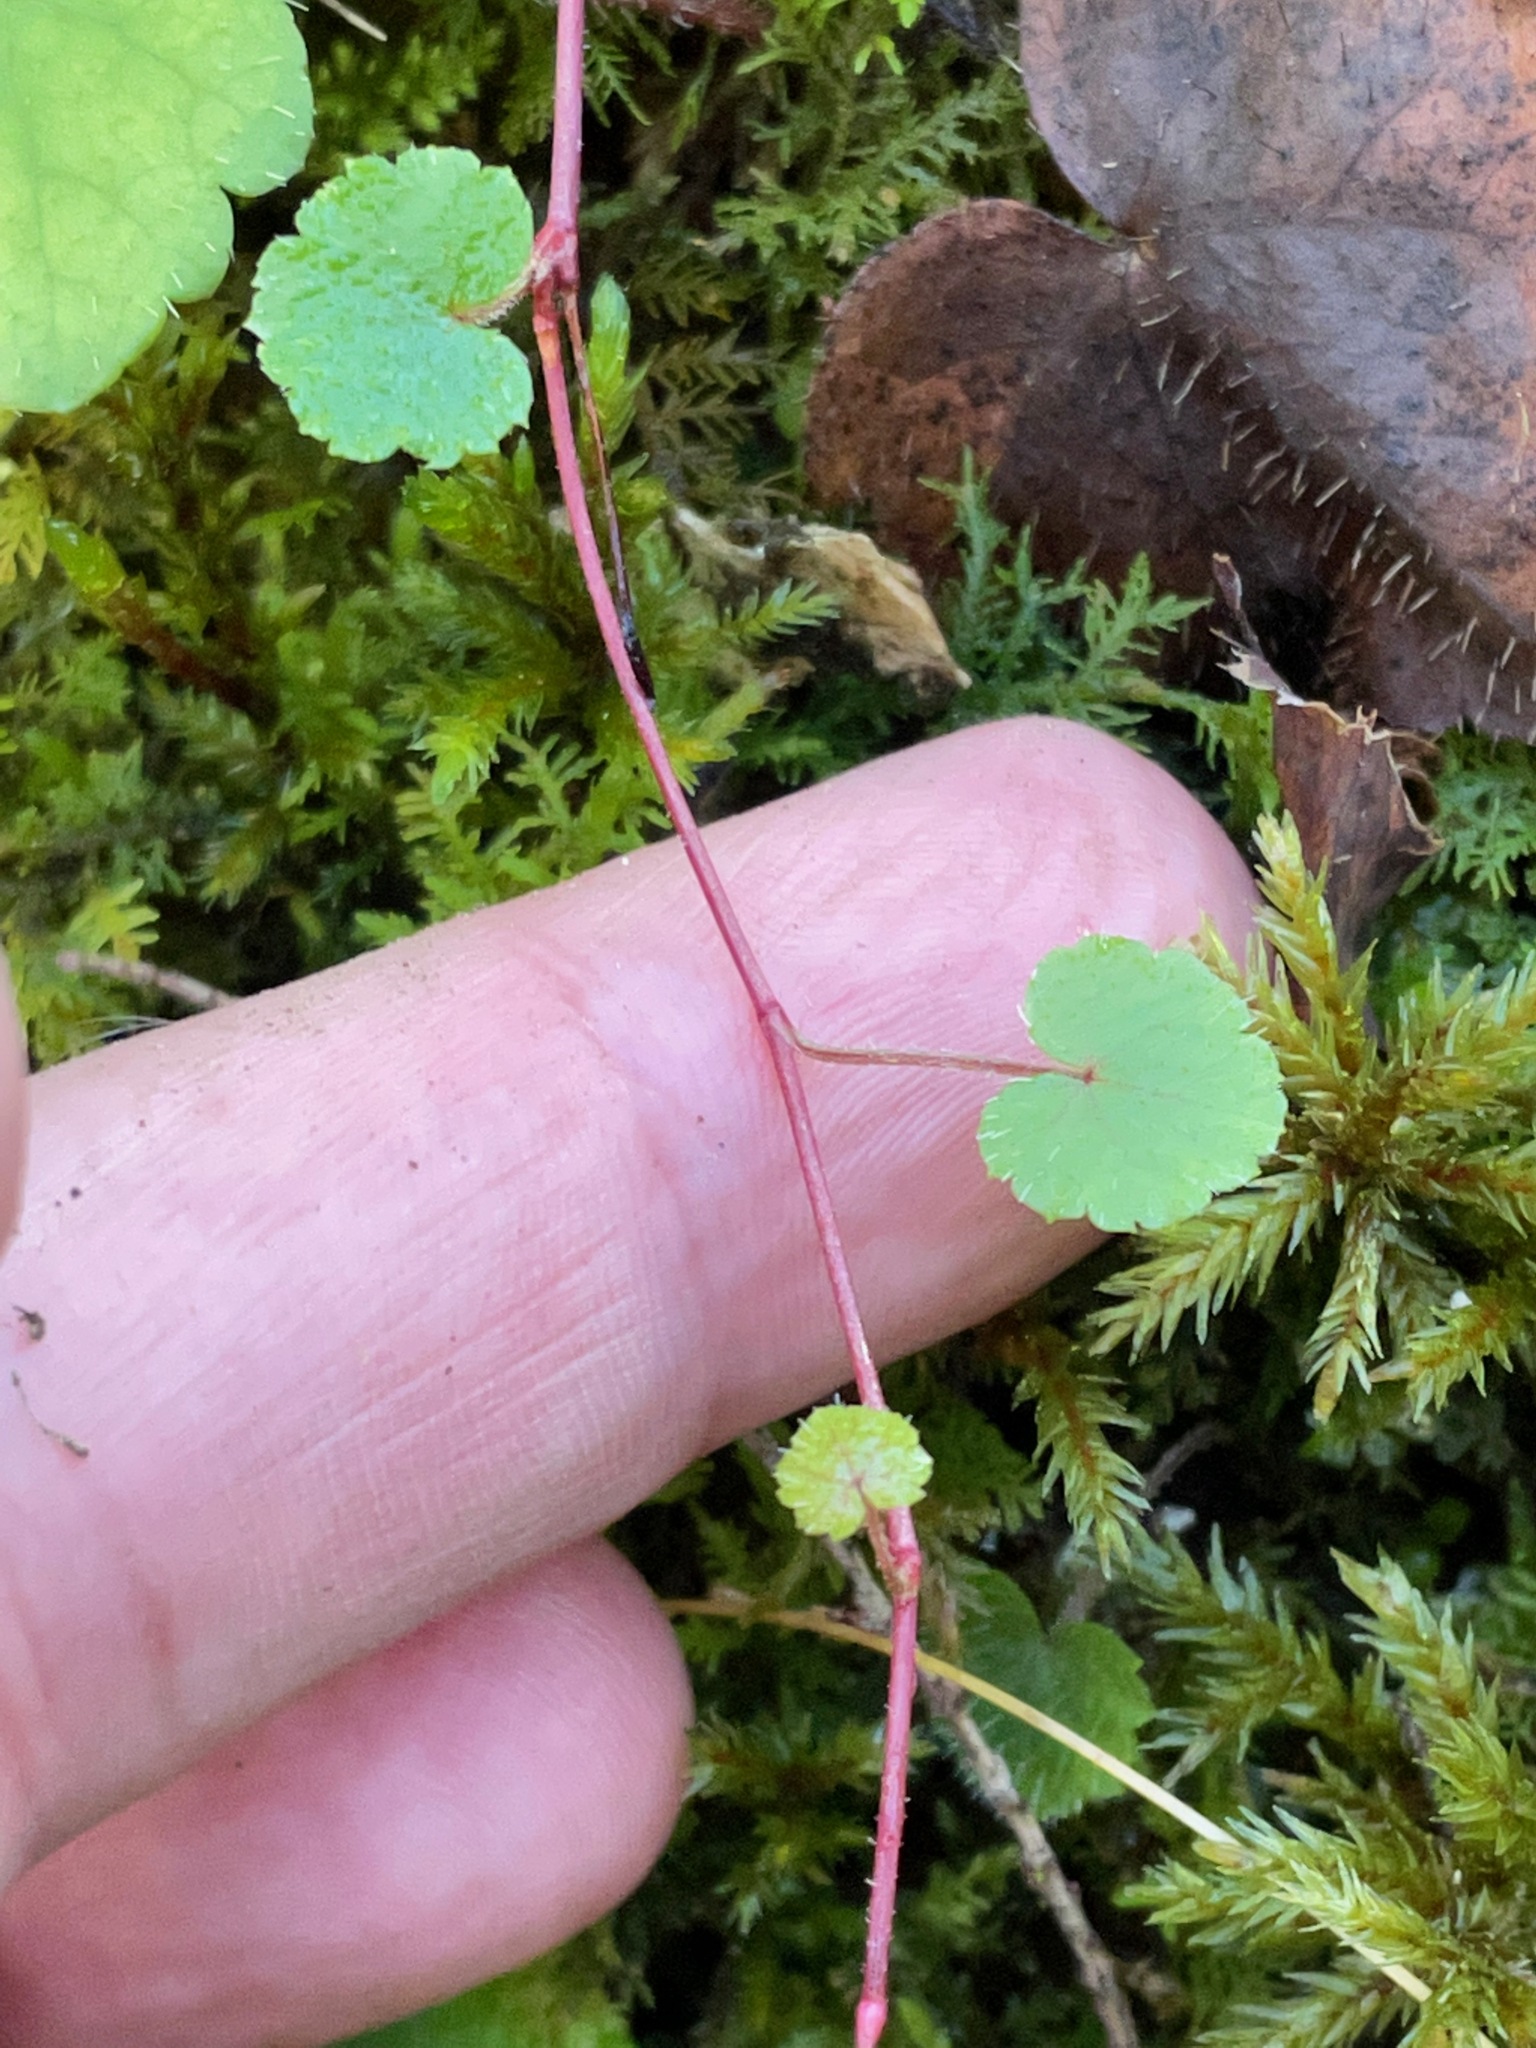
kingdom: Plantae
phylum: Tracheophyta
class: Magnoliopsida
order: Saxifragales
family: Saxifragaceae
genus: Mitella
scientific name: Mitella nuda
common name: Bare-stemmed bishop's-cap
